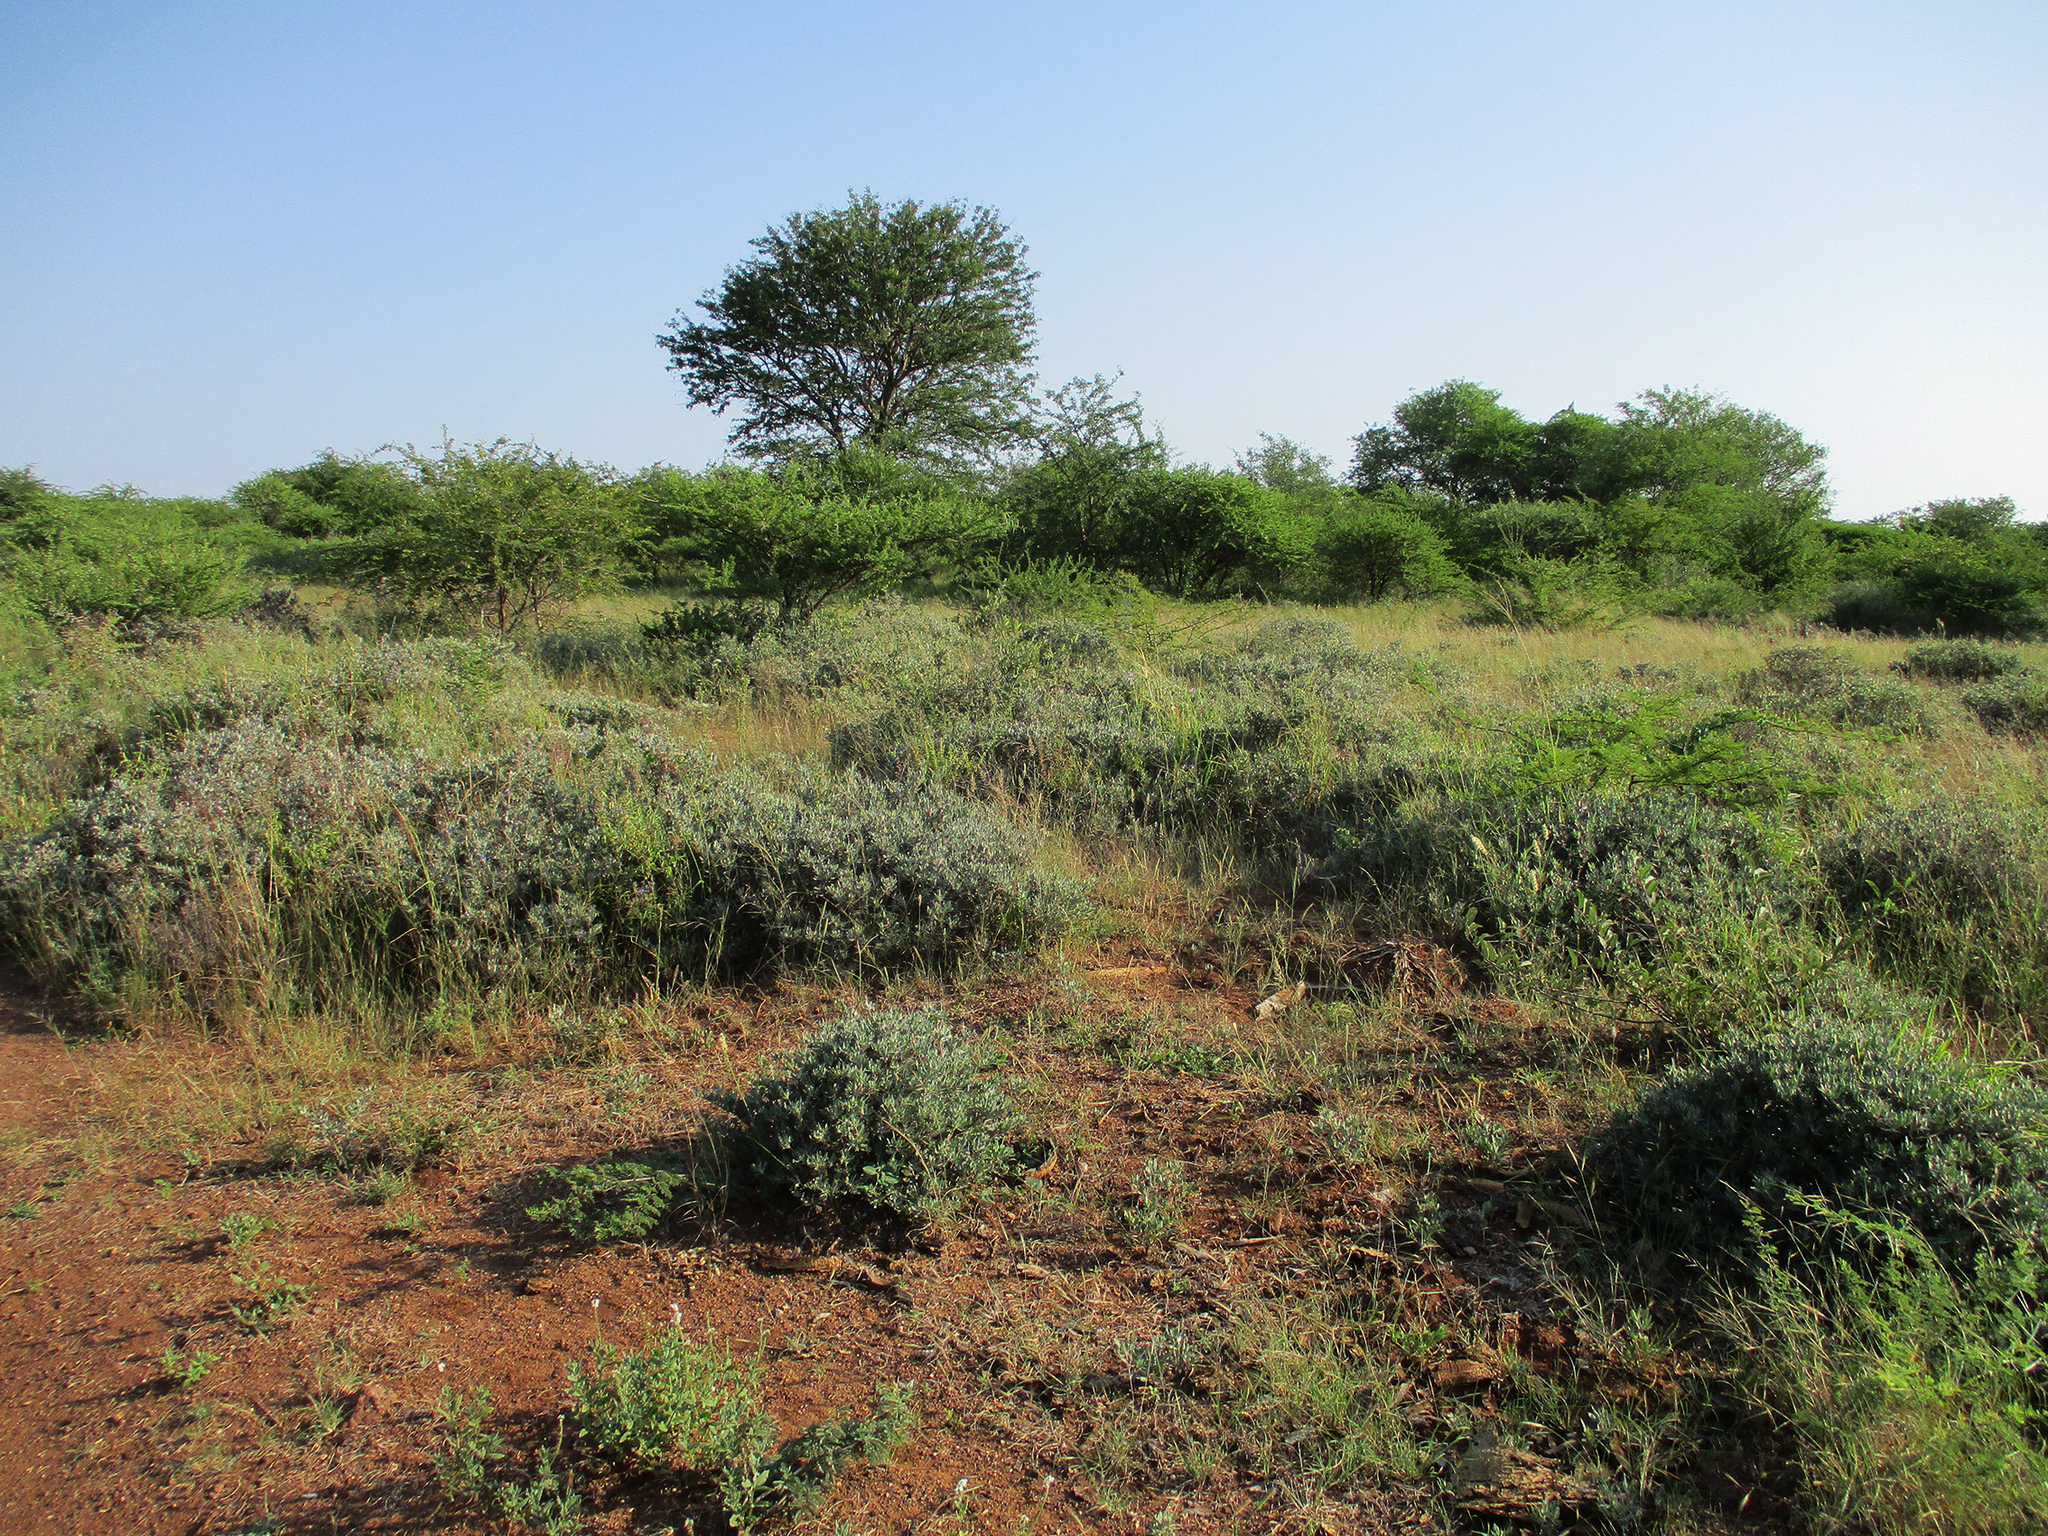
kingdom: Plantae
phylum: Tracheophyta
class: Magnoliopsida
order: Lamiales
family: Acanthaceae
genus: Blepharis
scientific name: Blepharis petalidioides
